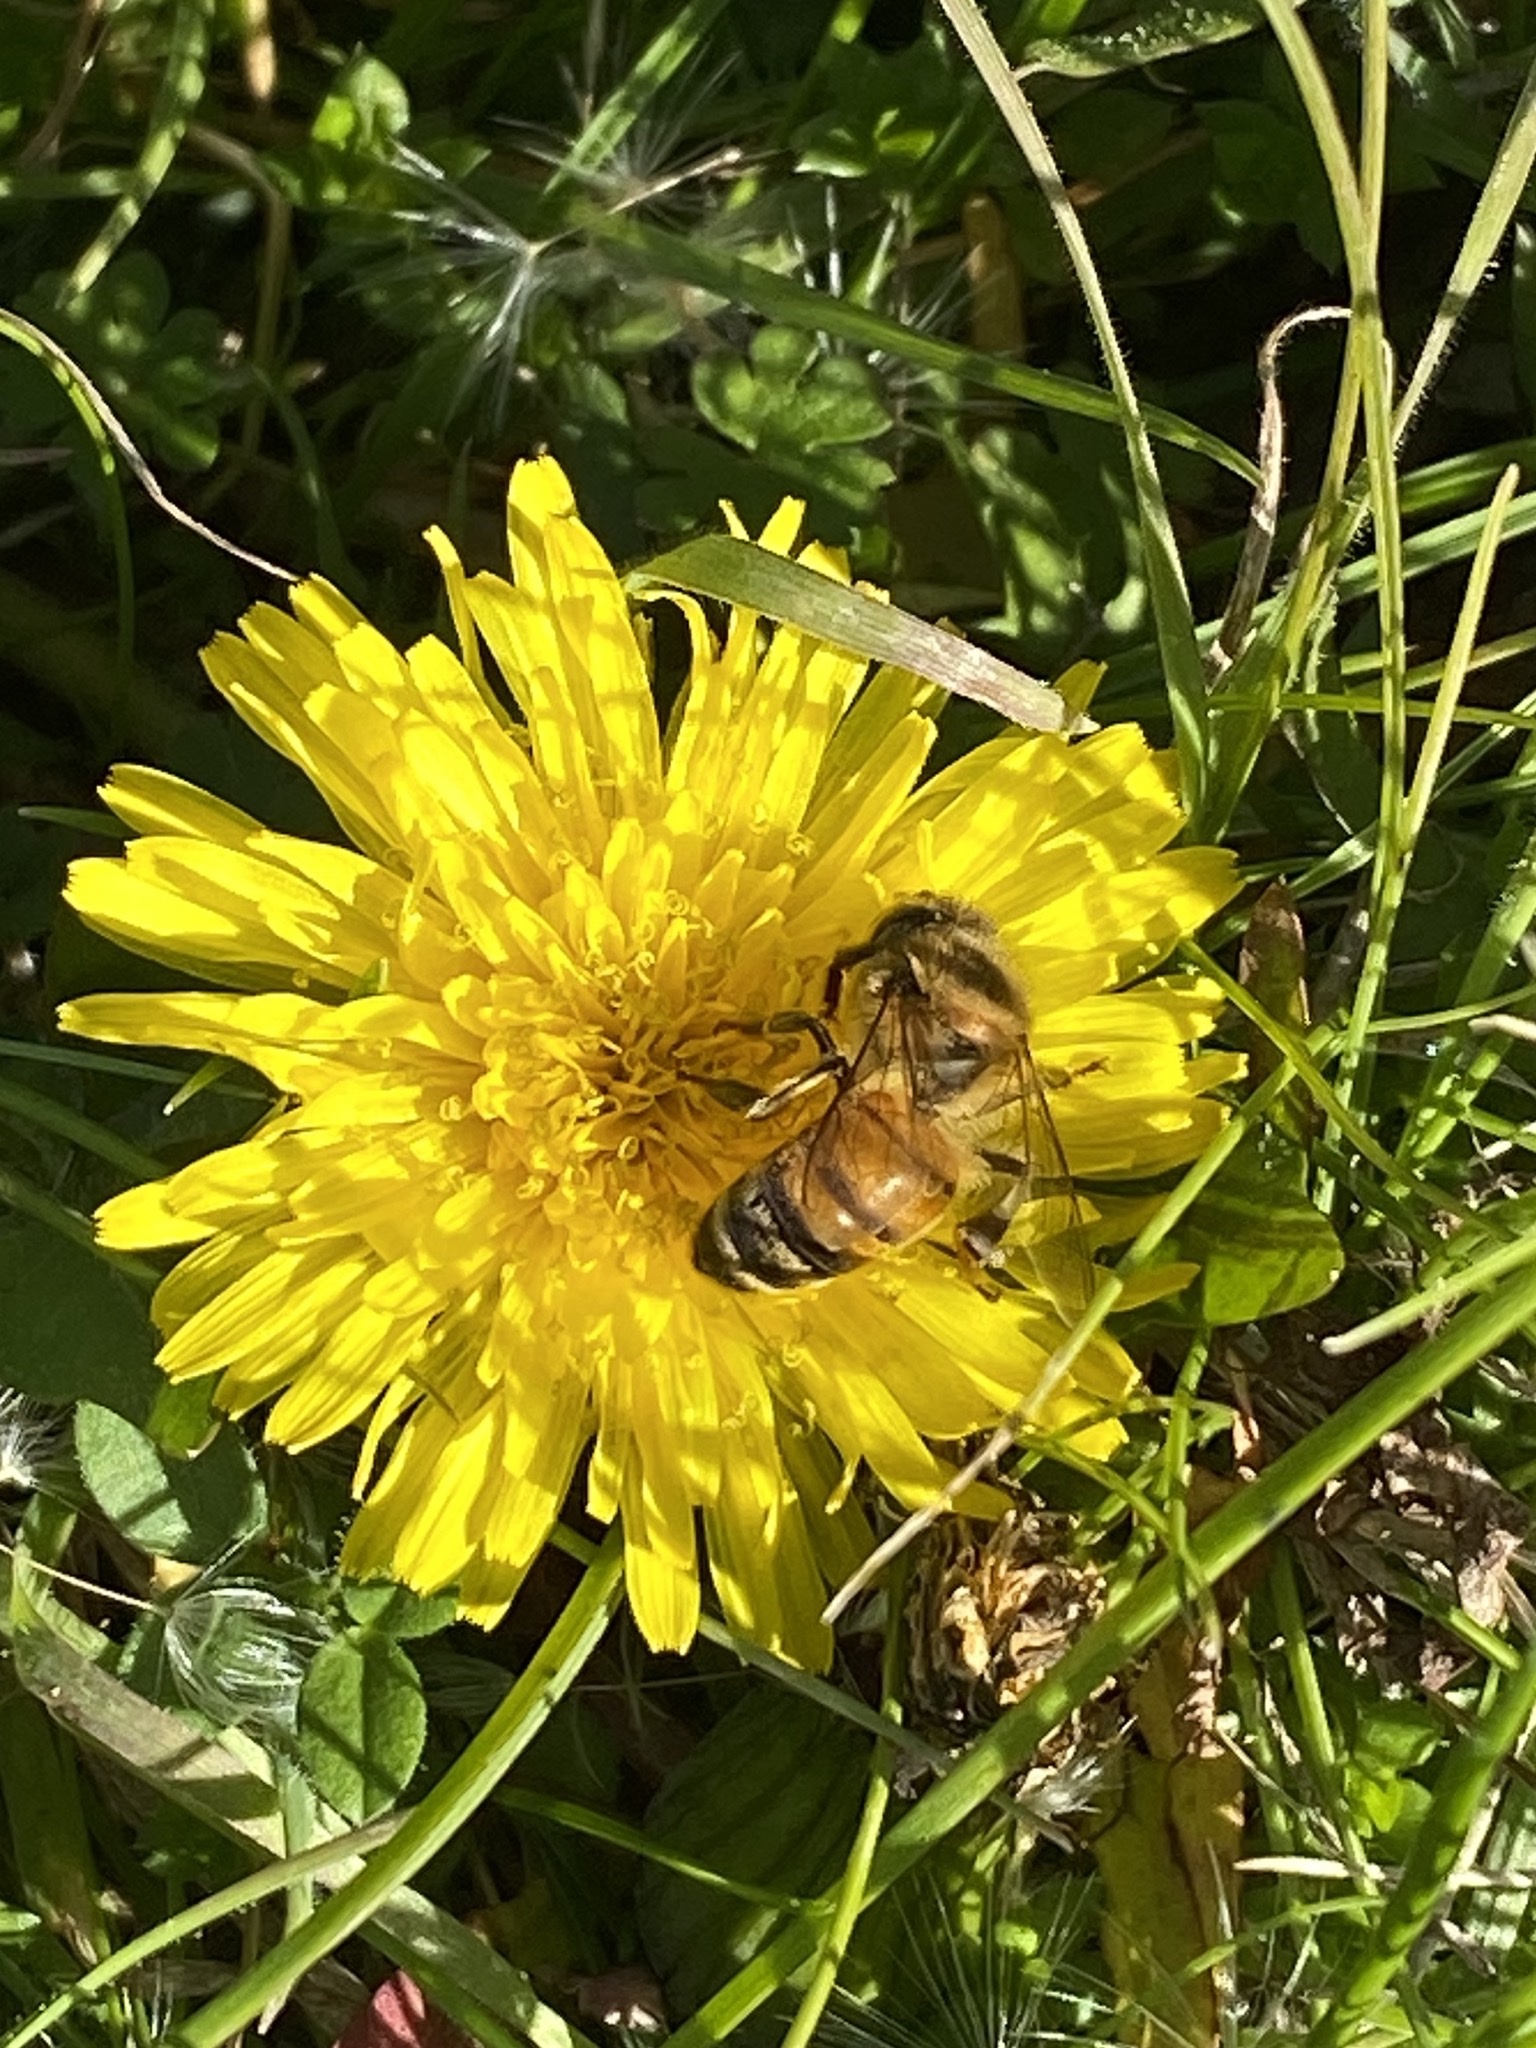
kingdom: Animalia
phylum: Arthropoda
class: Insecta
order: Hymenoptera
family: Apidae
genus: Apis
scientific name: Apis mellifera
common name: Honey bee
